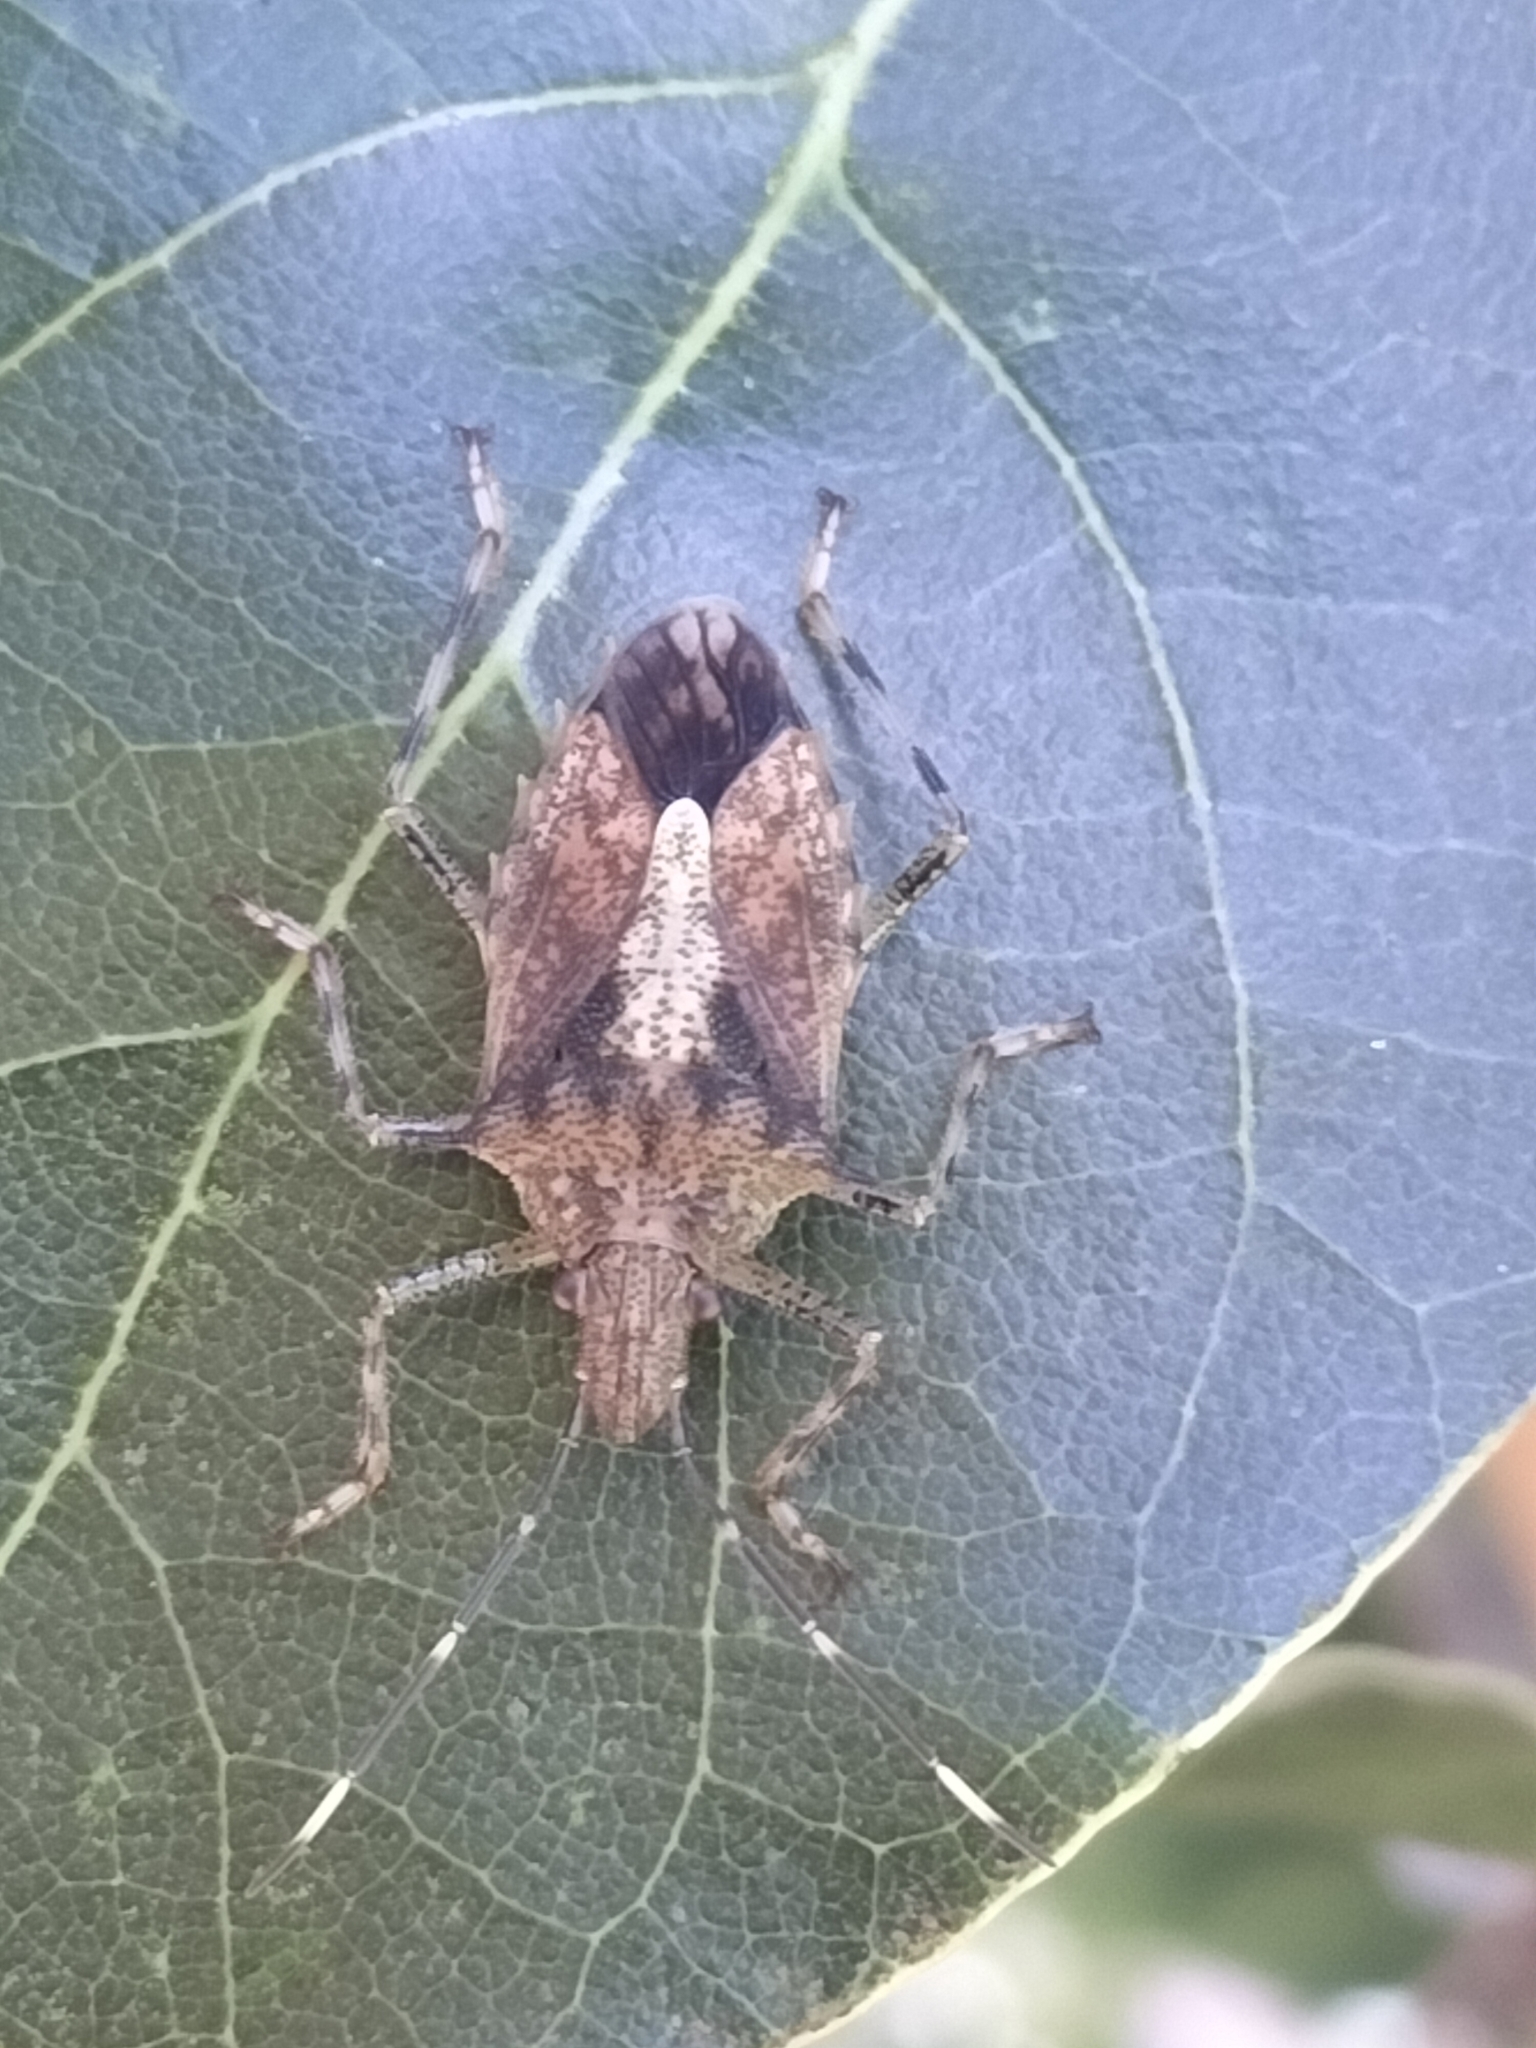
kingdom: Animalia
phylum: Arthropoda
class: Insecta
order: Hemiptera
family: Pentatomidae
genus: Bromocoris
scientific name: Bromocoris
